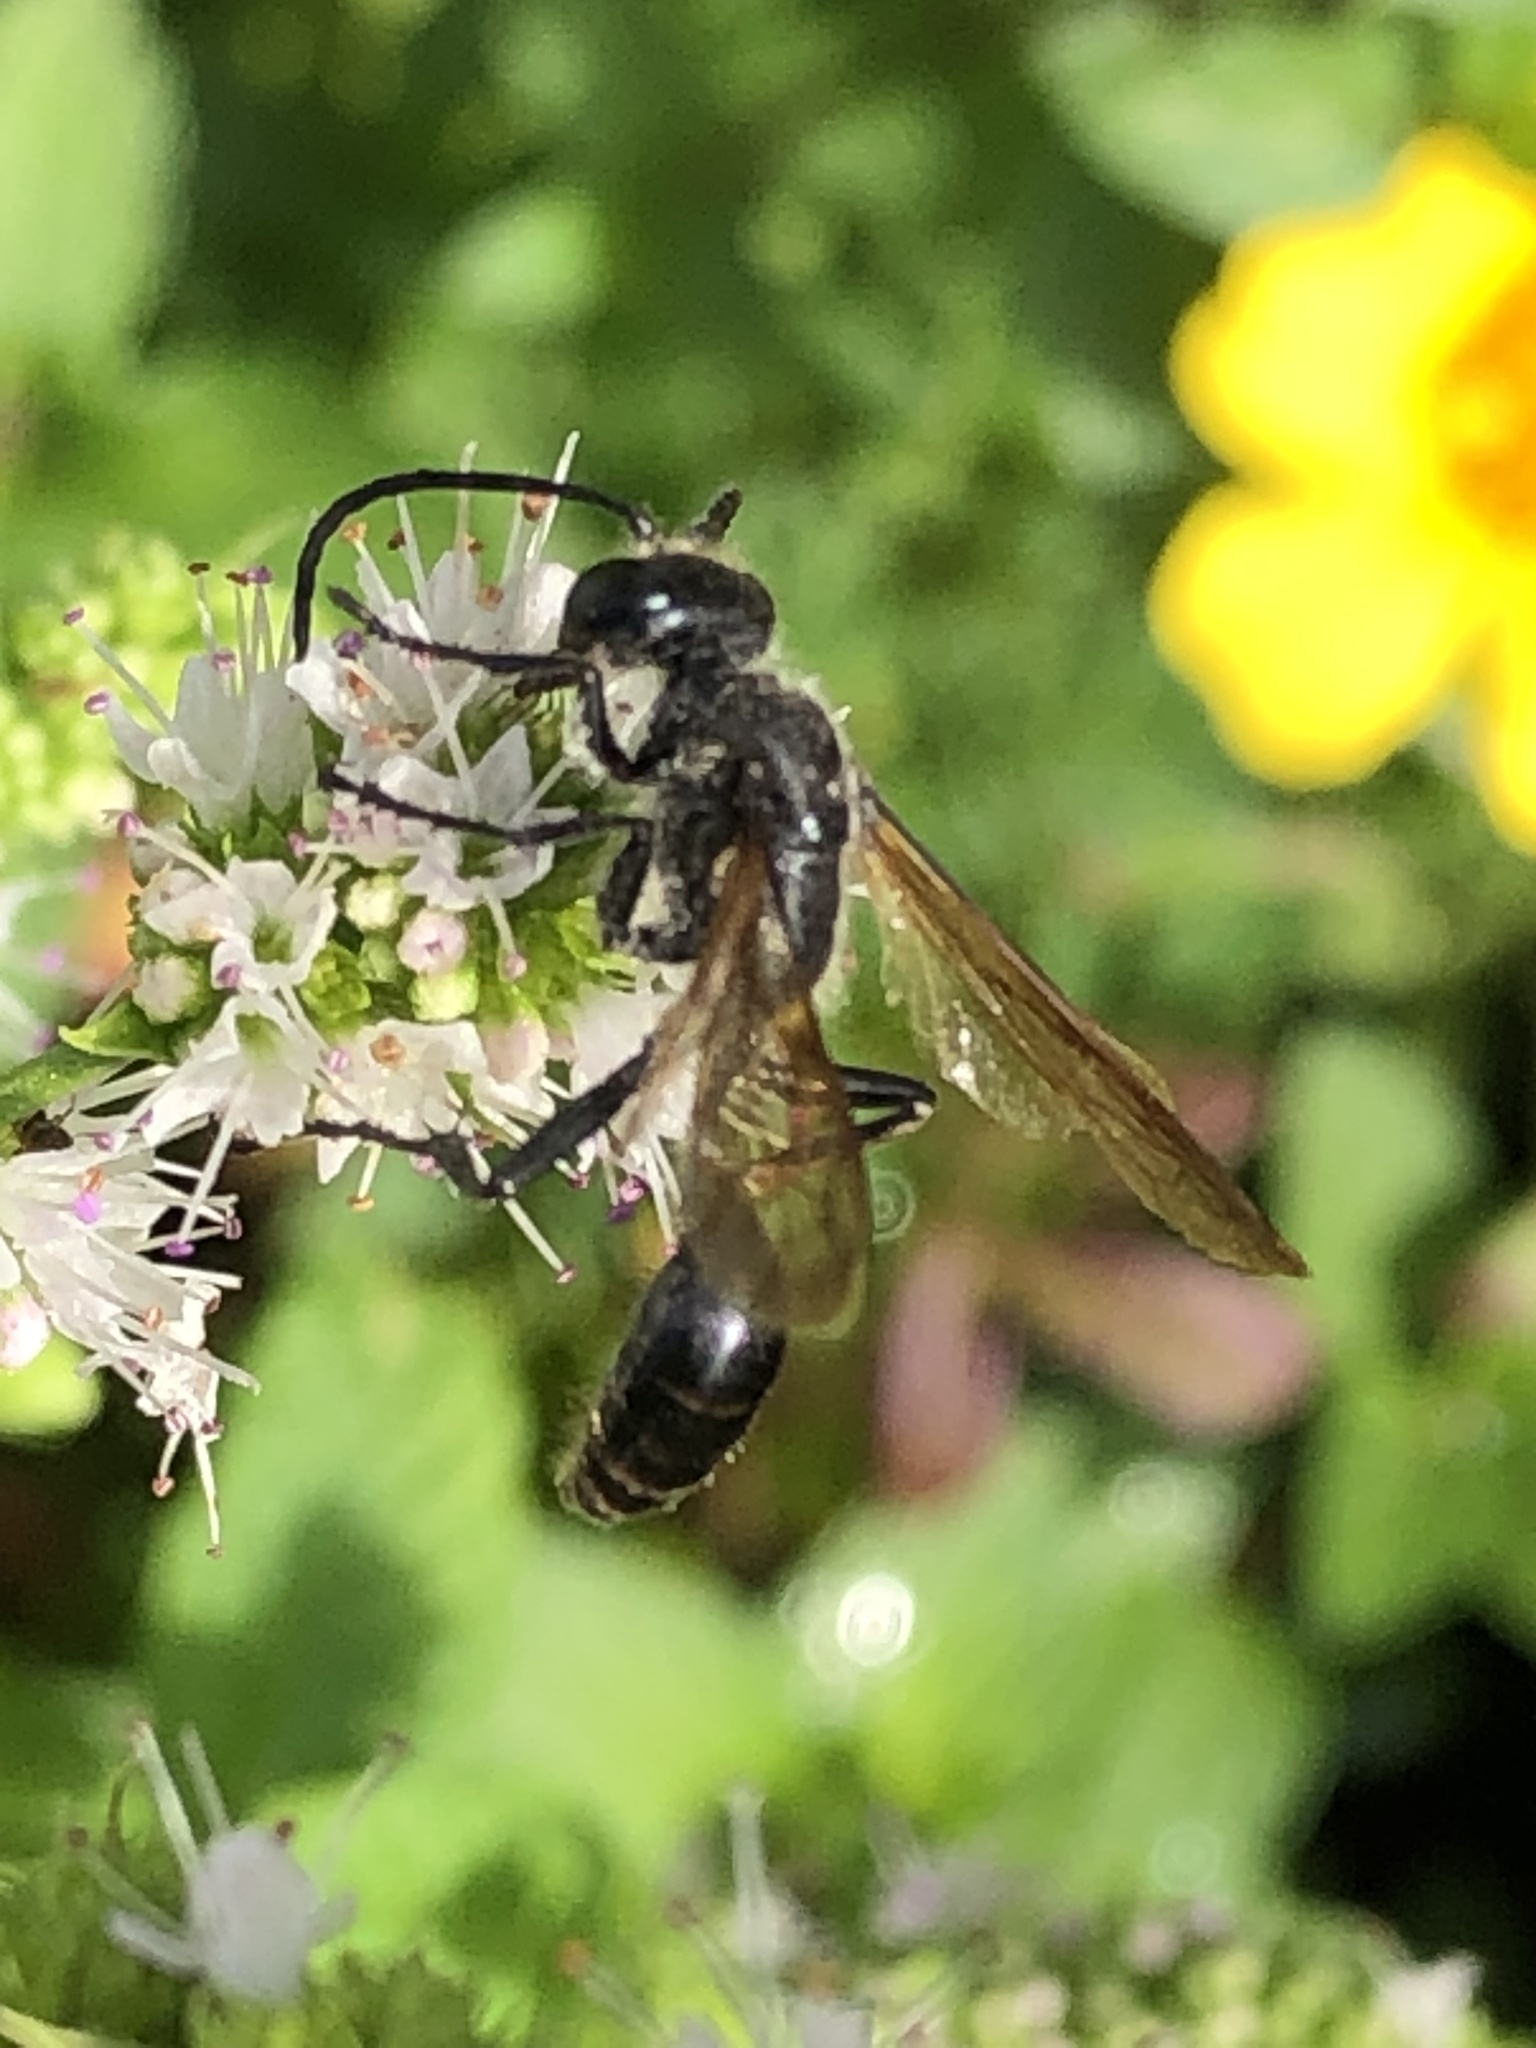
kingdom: Animalia
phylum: Arthropoda
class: Insecta
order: Hymenoptera
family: Sphecidae
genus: Isodontia
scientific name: Isodontia mexicana
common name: Mud dauber
